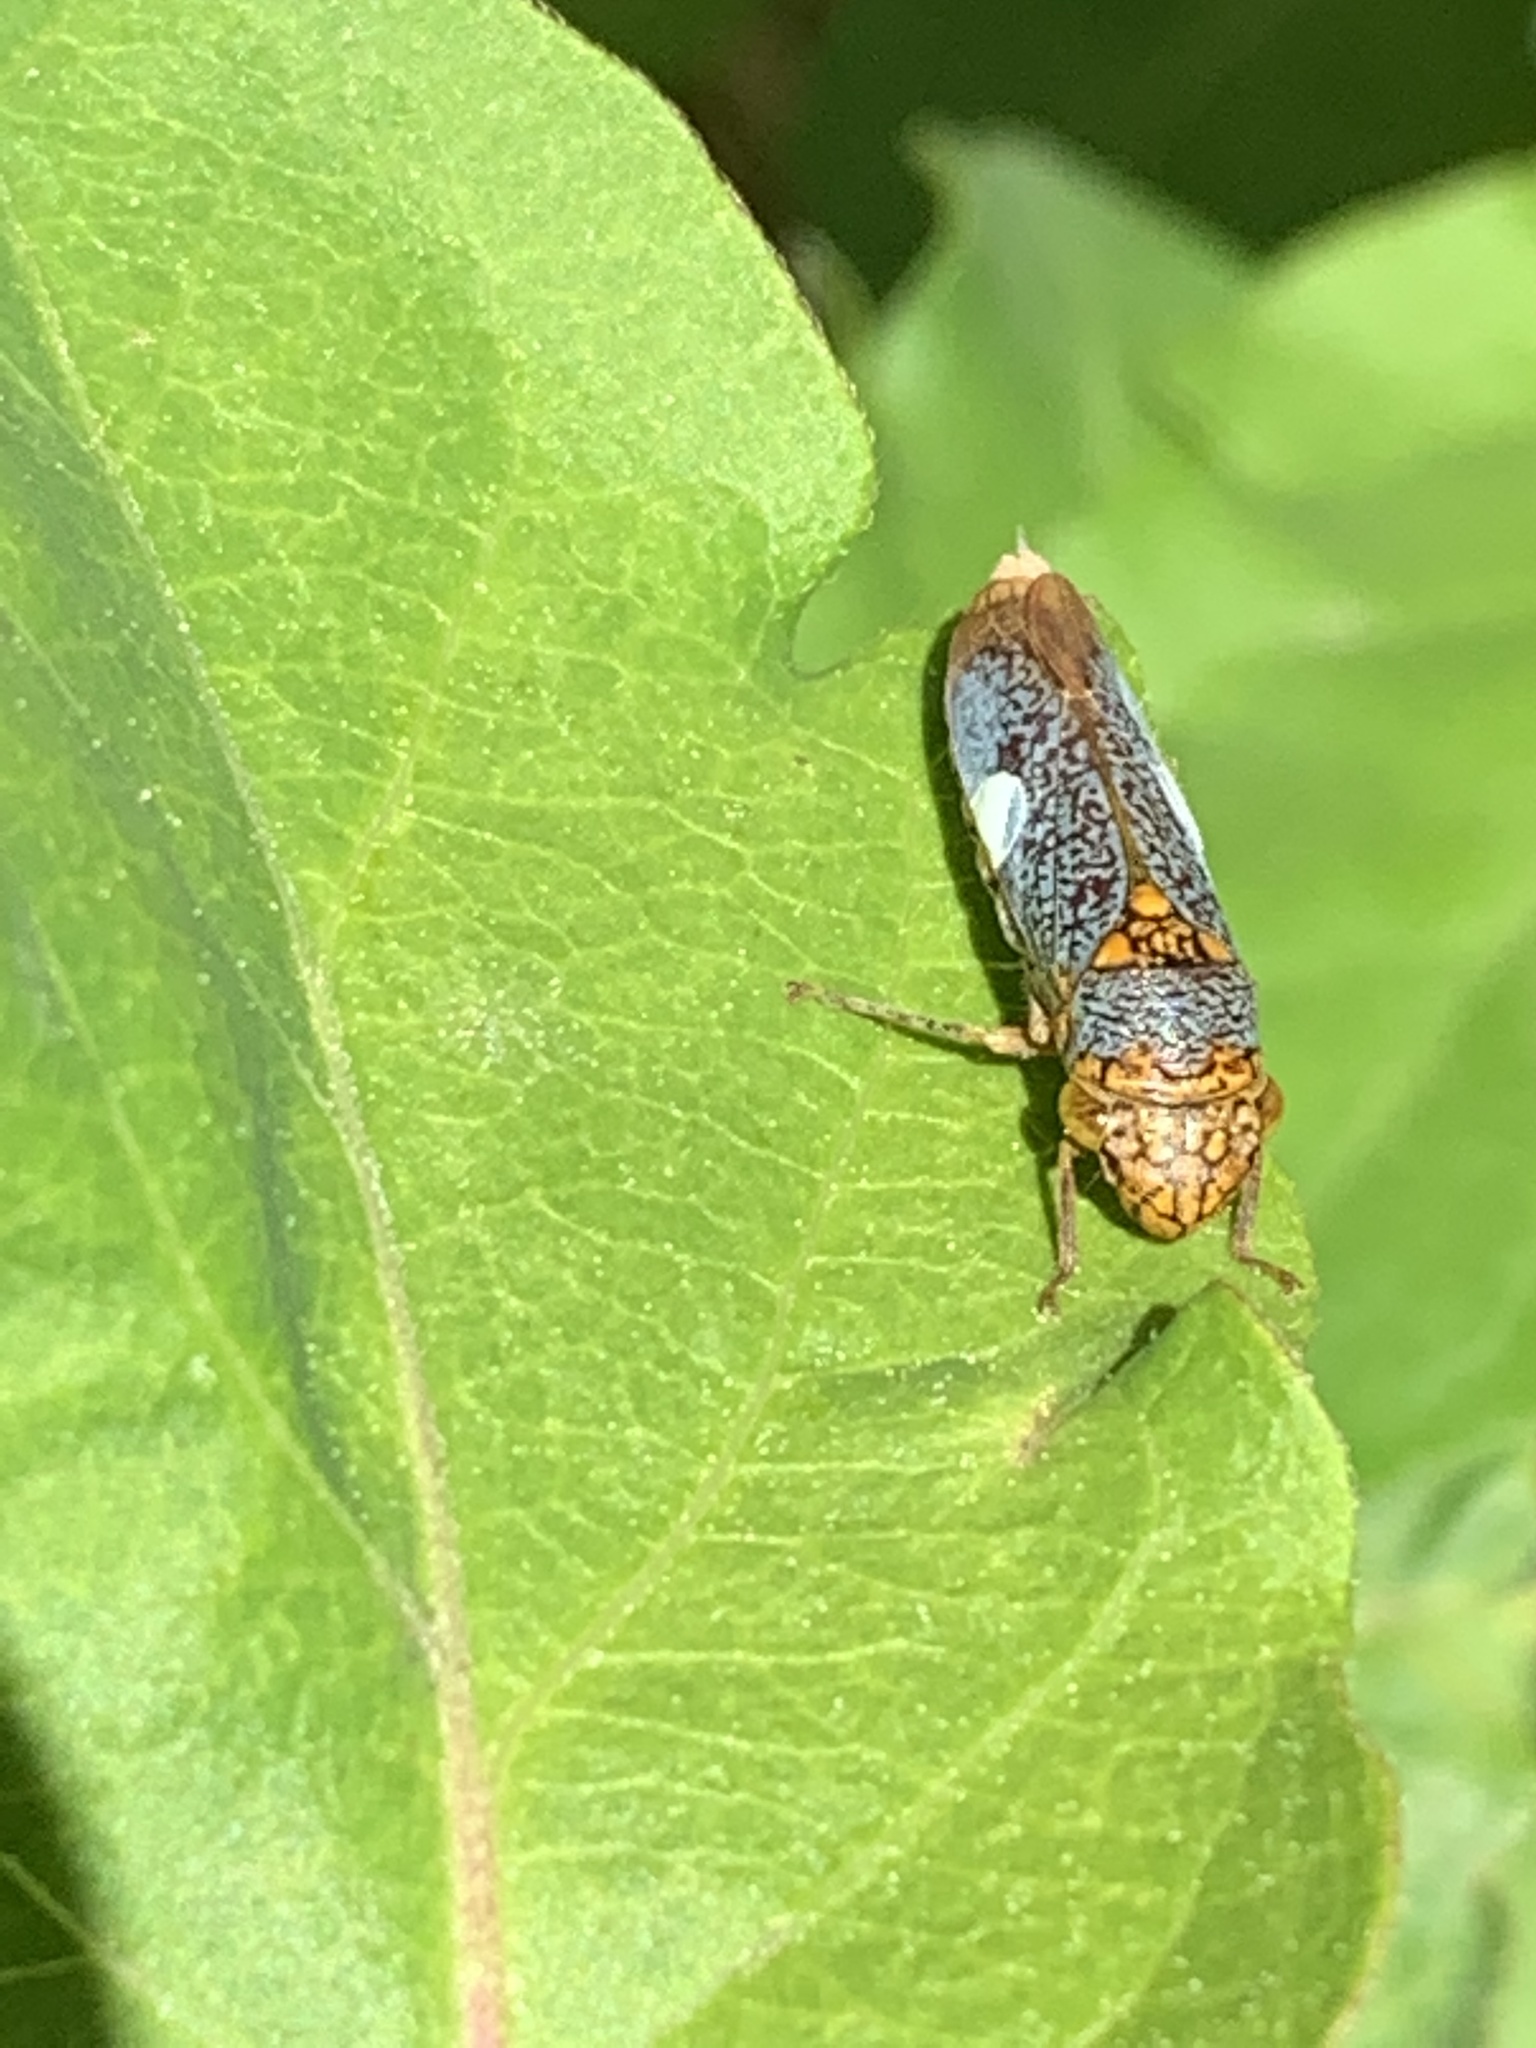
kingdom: Animalia
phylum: Arthropoda
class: Insecta
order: Hemiptera
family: Cicadellidae
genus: Oncometopia
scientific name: Oncometopia orbona
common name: Broad-headed sharpshooter
